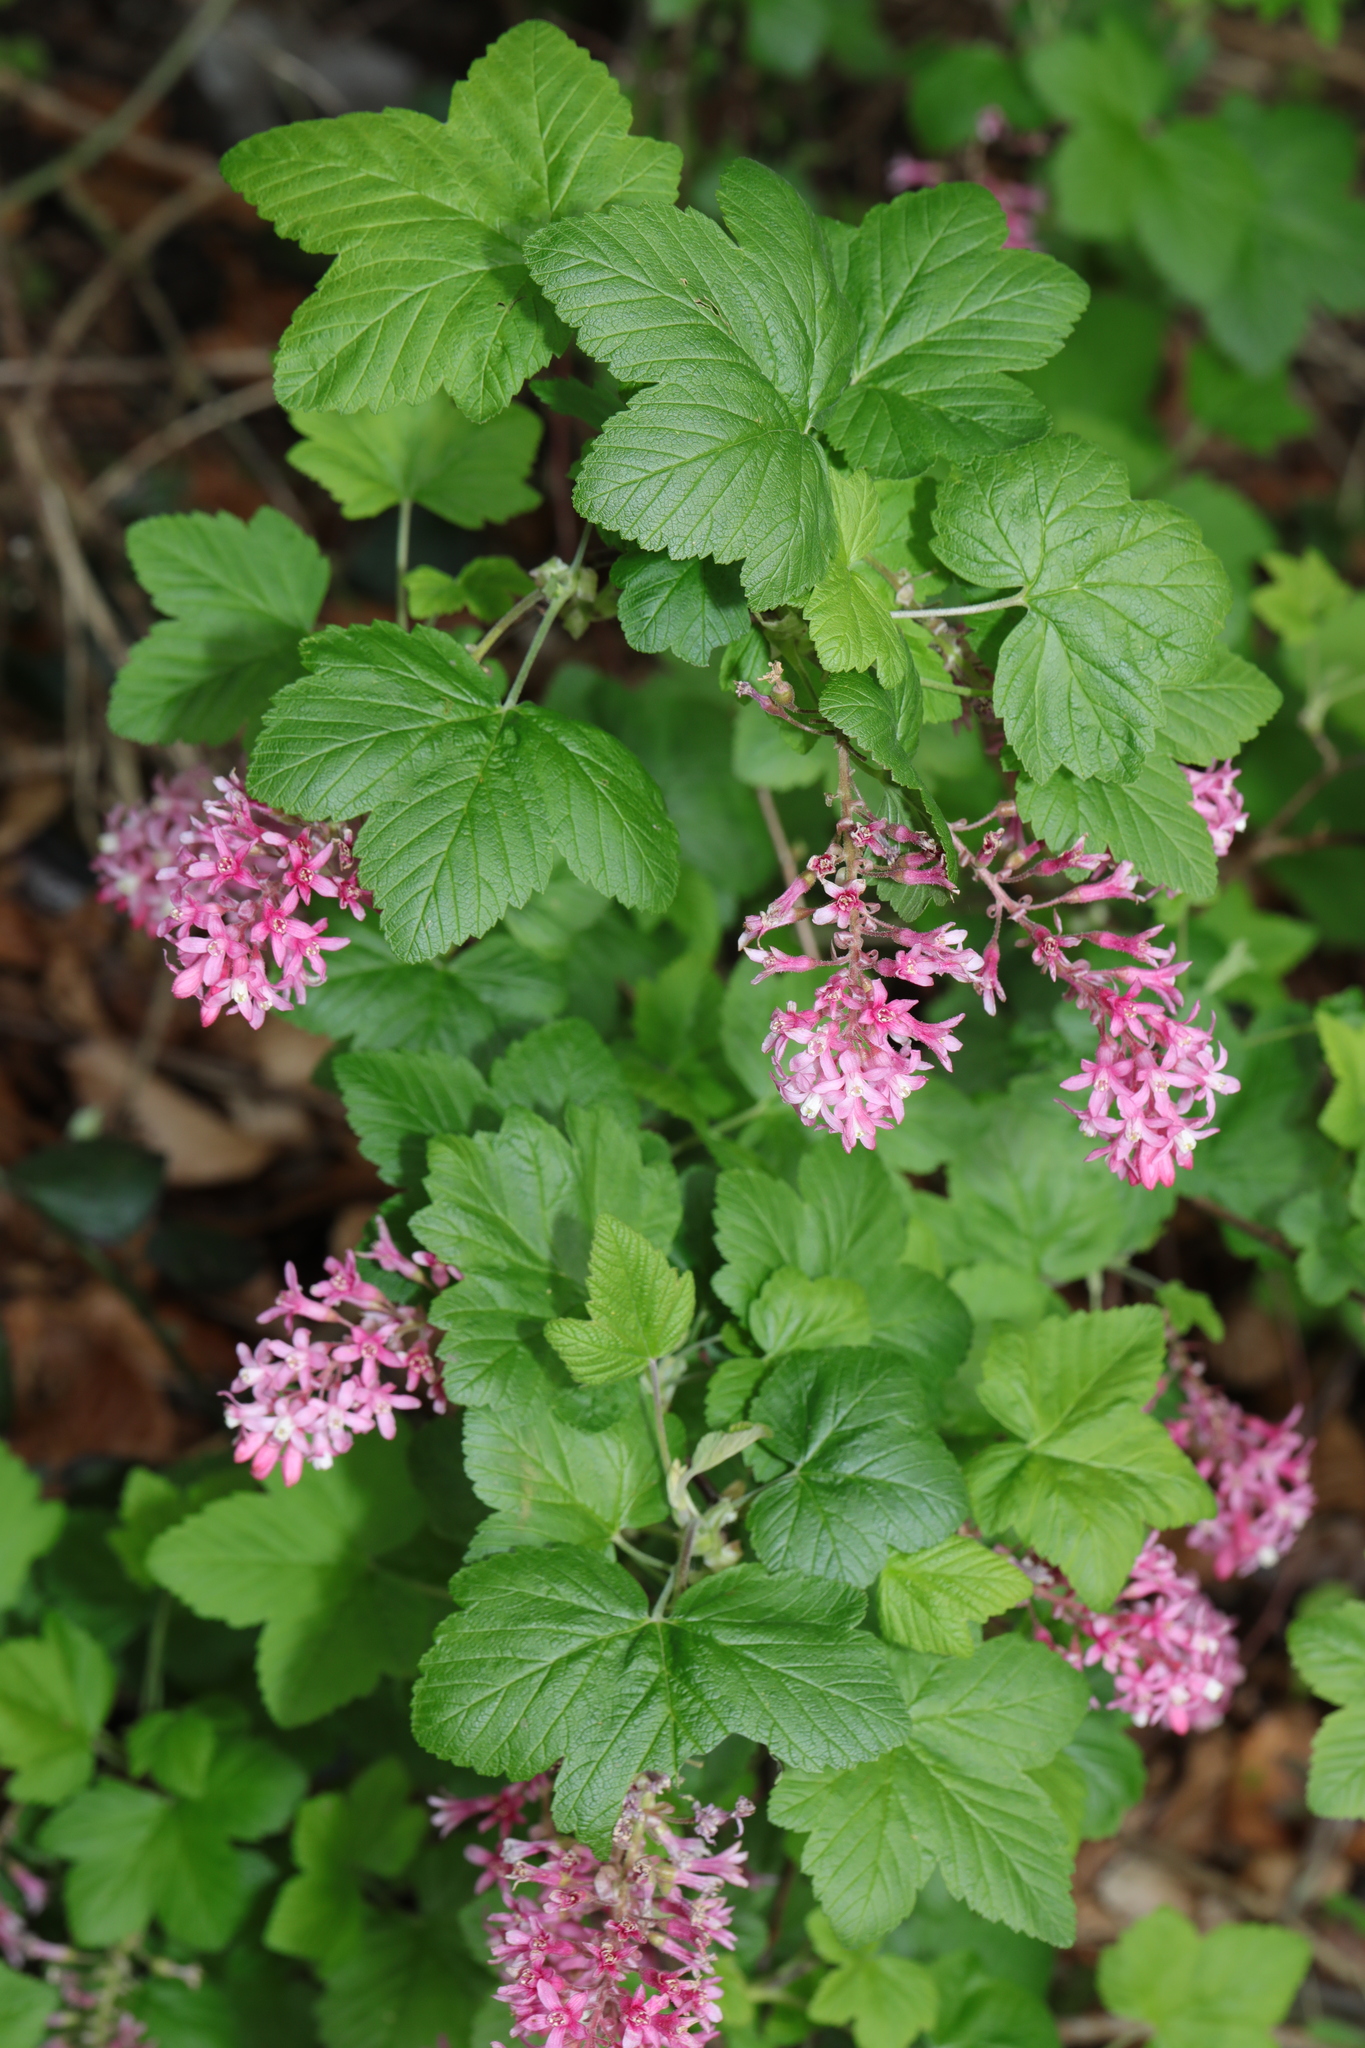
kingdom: Plantae
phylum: Tracheophyta
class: Magnoliopsida
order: Saxifragales
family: Grossulariaceae
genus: Ribes
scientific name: Ribes sanguineum
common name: Flowering currant
